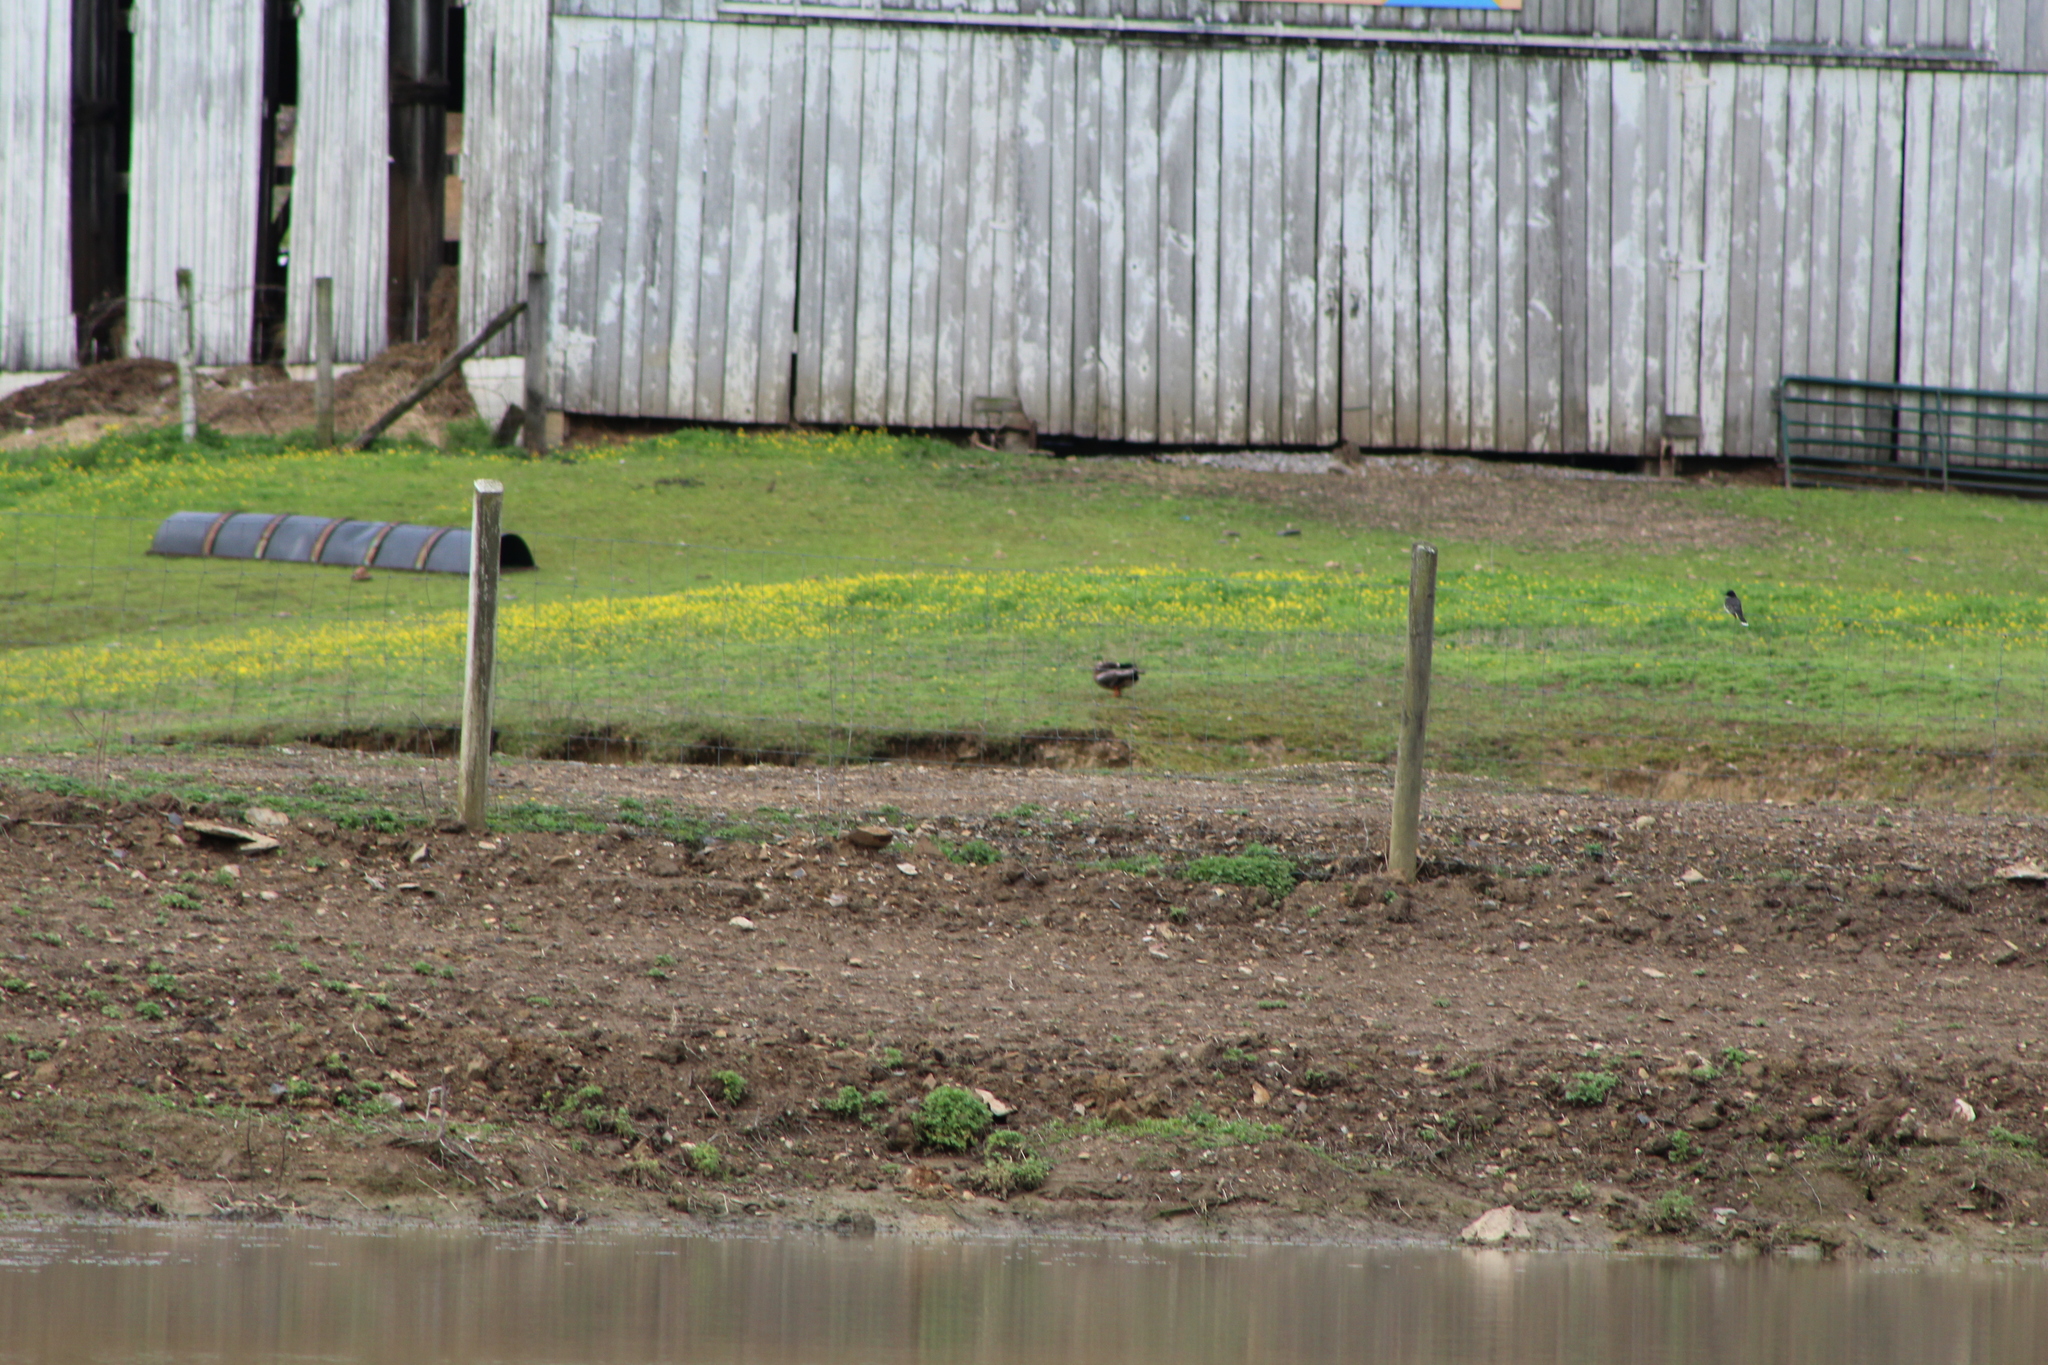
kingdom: Animalia
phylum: Chordata
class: Aves
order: Passeriformes
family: Tyrannidae
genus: Tyrannus
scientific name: Tyrannus tyrannus
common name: Eastern kingbird
